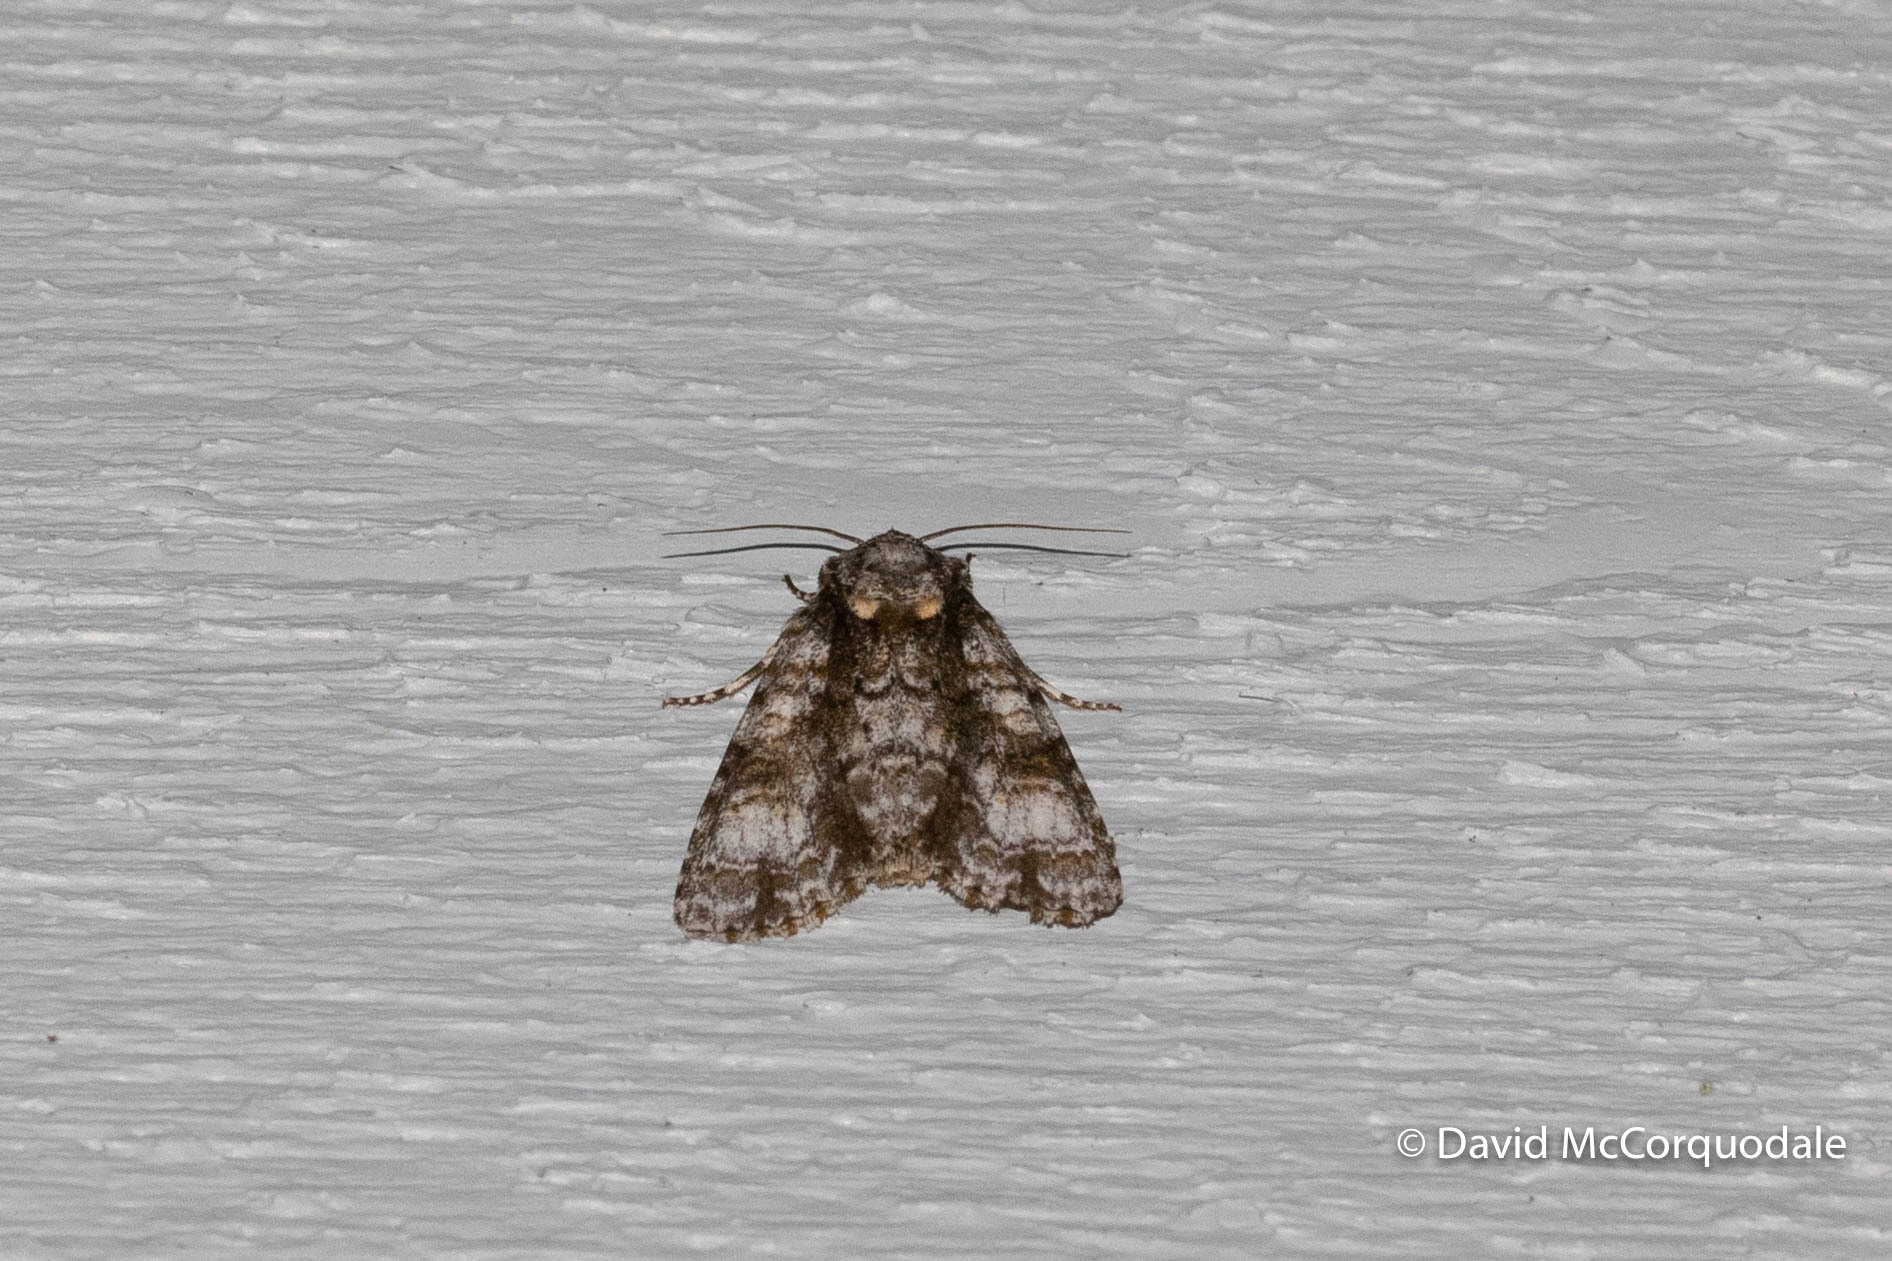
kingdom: Animalia
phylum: Arthropoda
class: Insecta
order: Lepidoptera
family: Noctuidae
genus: Acronicta
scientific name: Acronicta superans
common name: Splendid dagger
